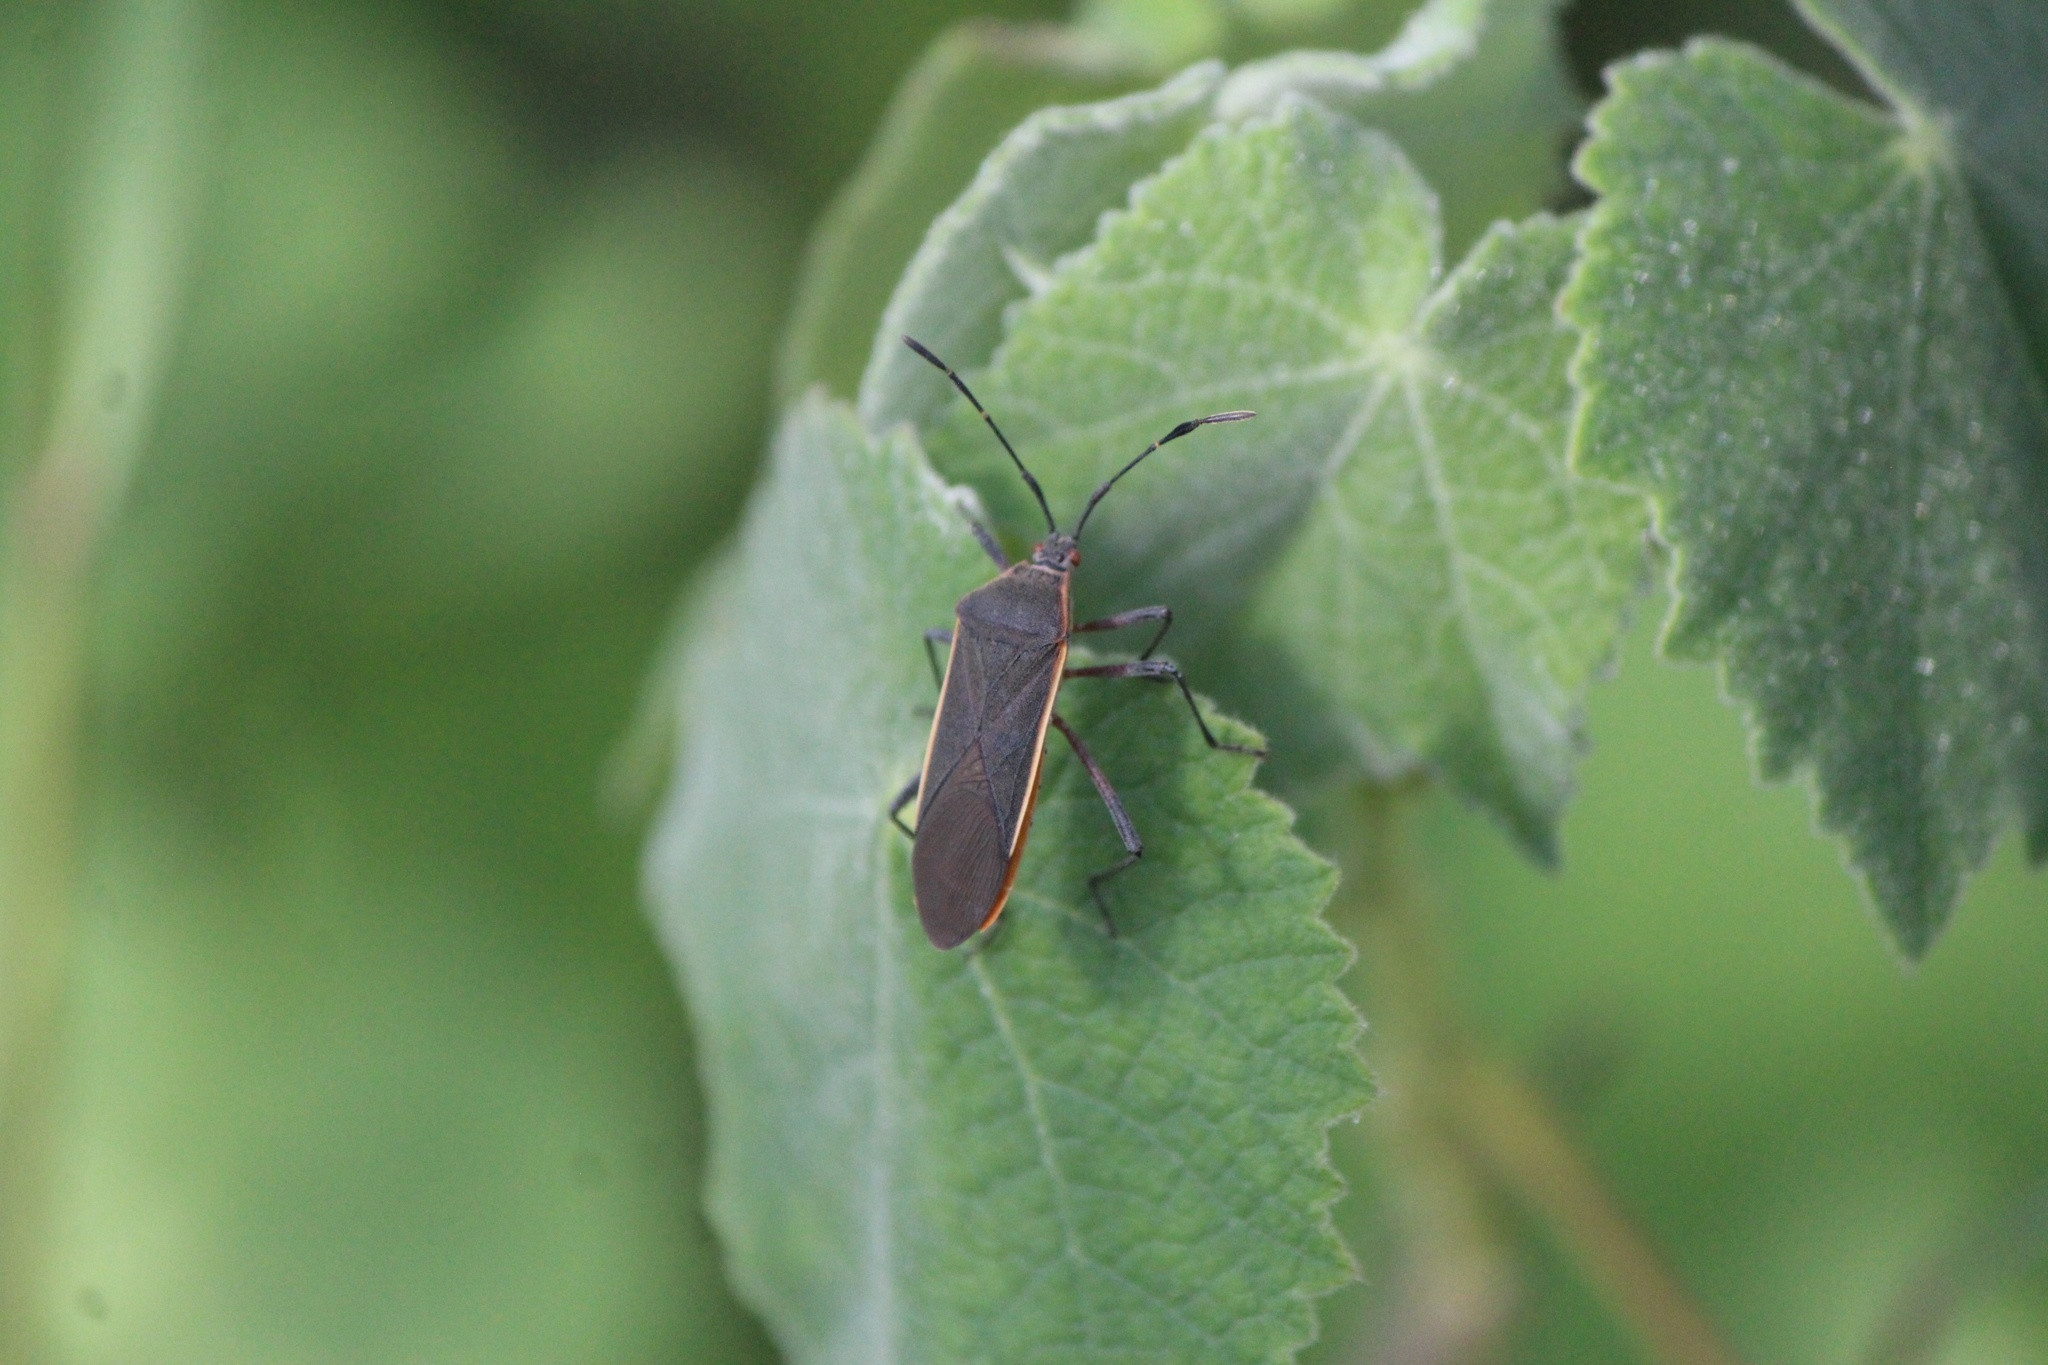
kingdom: Animalia
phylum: Arthropoda
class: Insecta
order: Hemiptera
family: Coreidae
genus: Staluptus
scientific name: Staluptus marginalis
